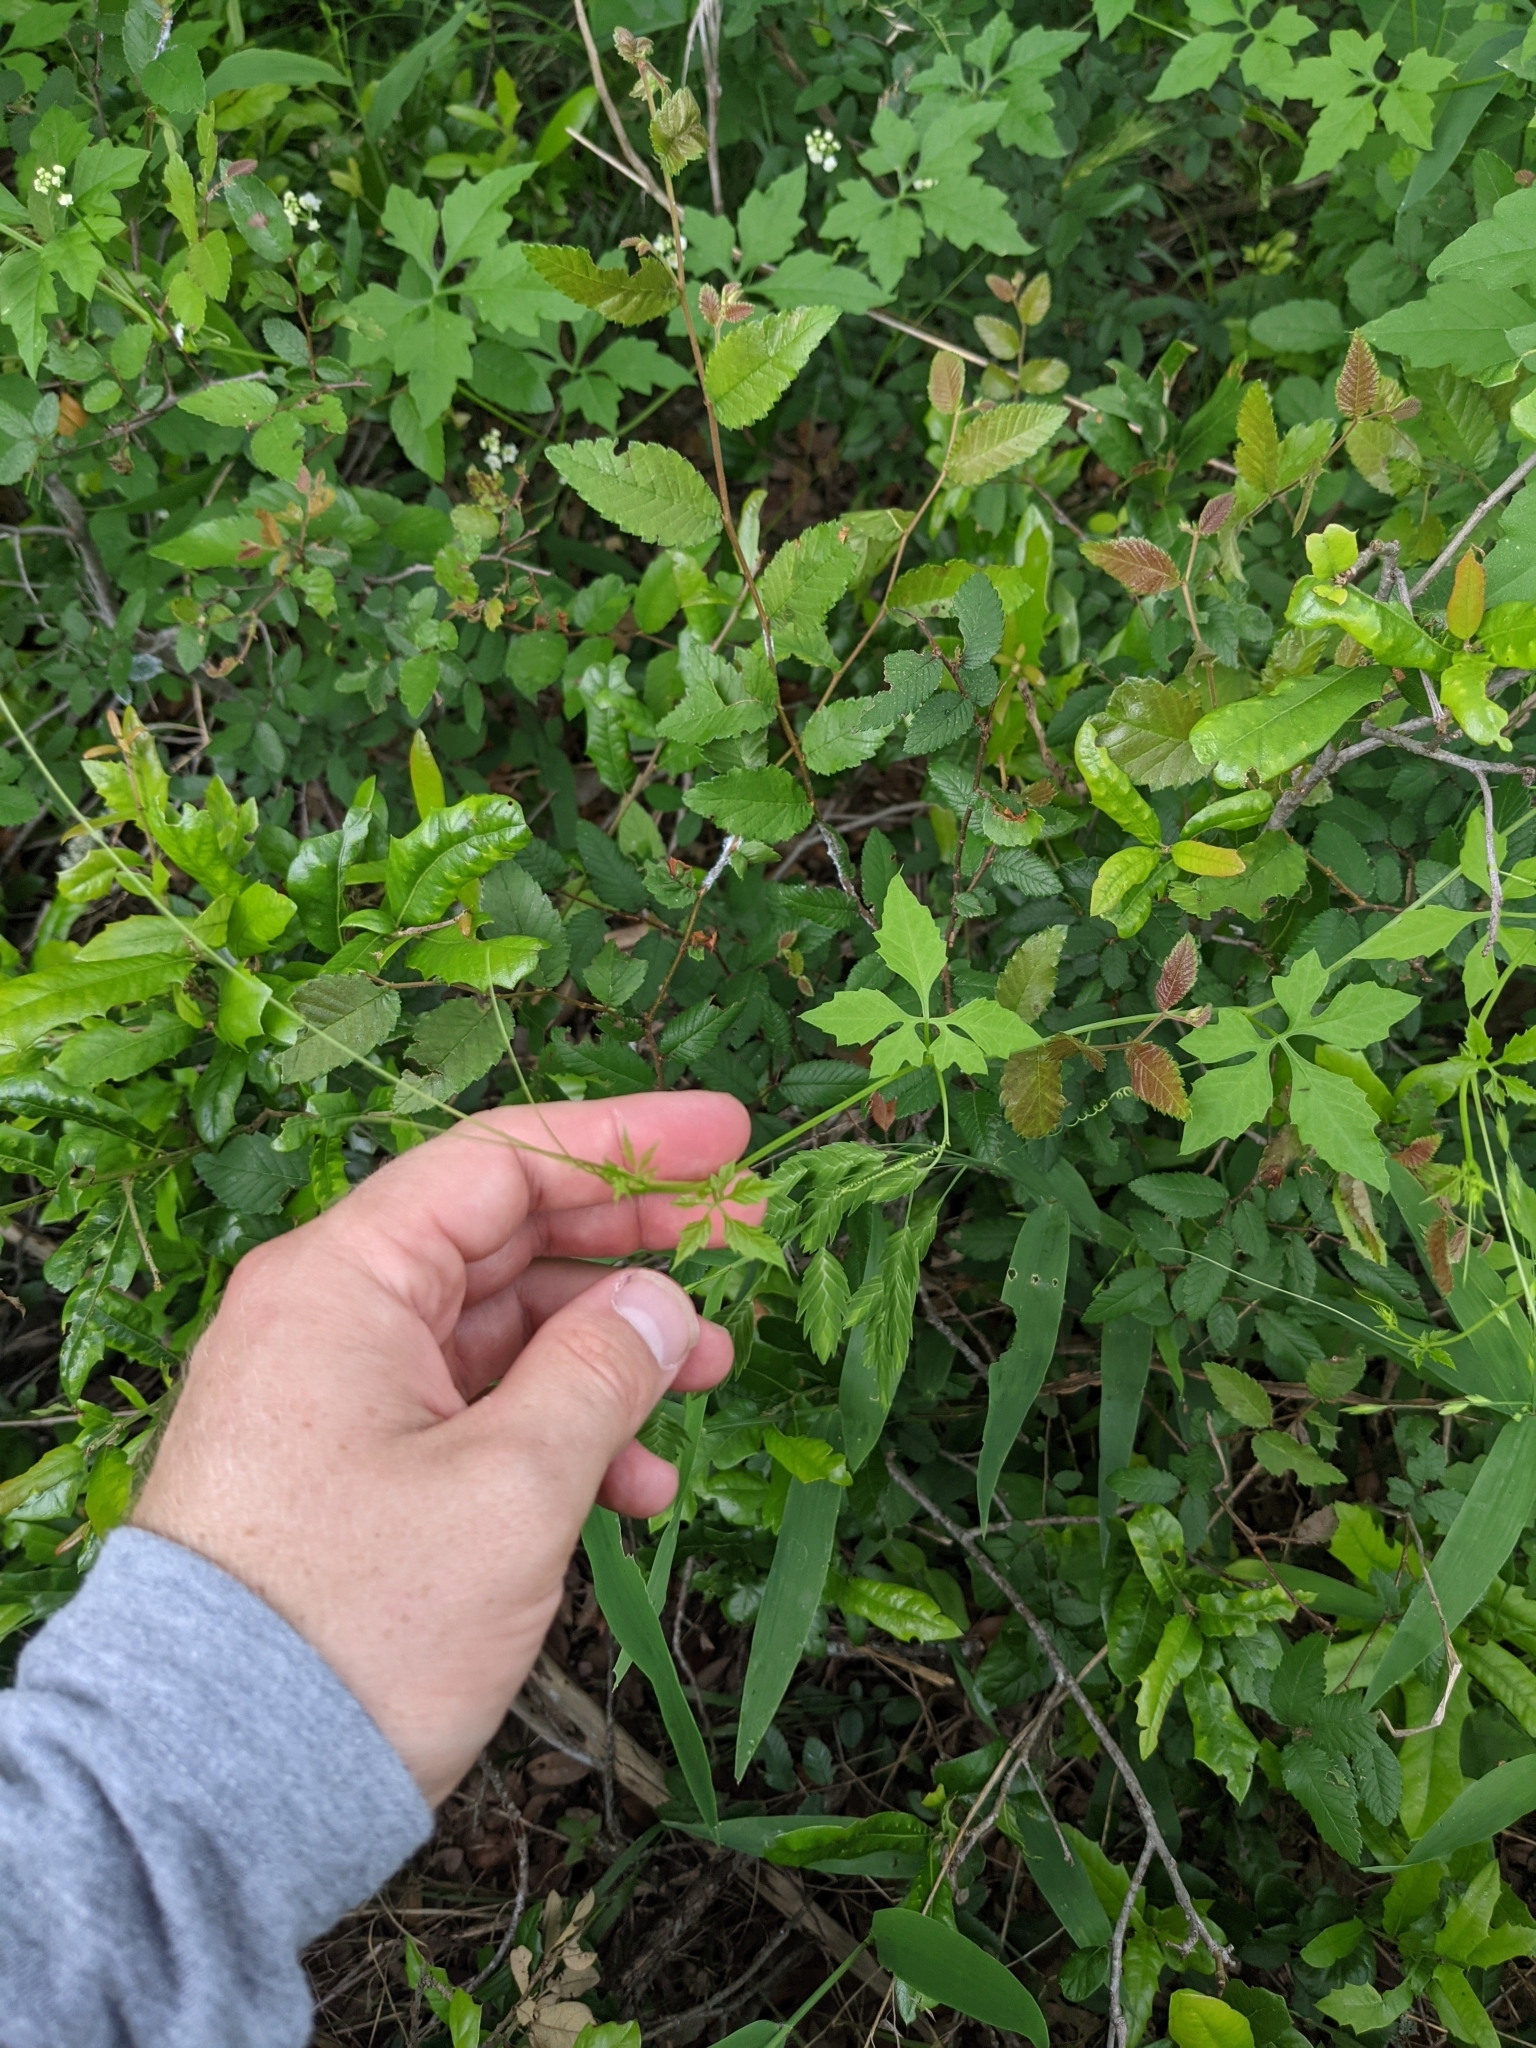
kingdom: Plantae
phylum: Tracheophyta
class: Magnoliopsida
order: Cucurbitales
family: Cucurbitaceae
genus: Cyclanthera
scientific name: Cyclanthera naudiniana
